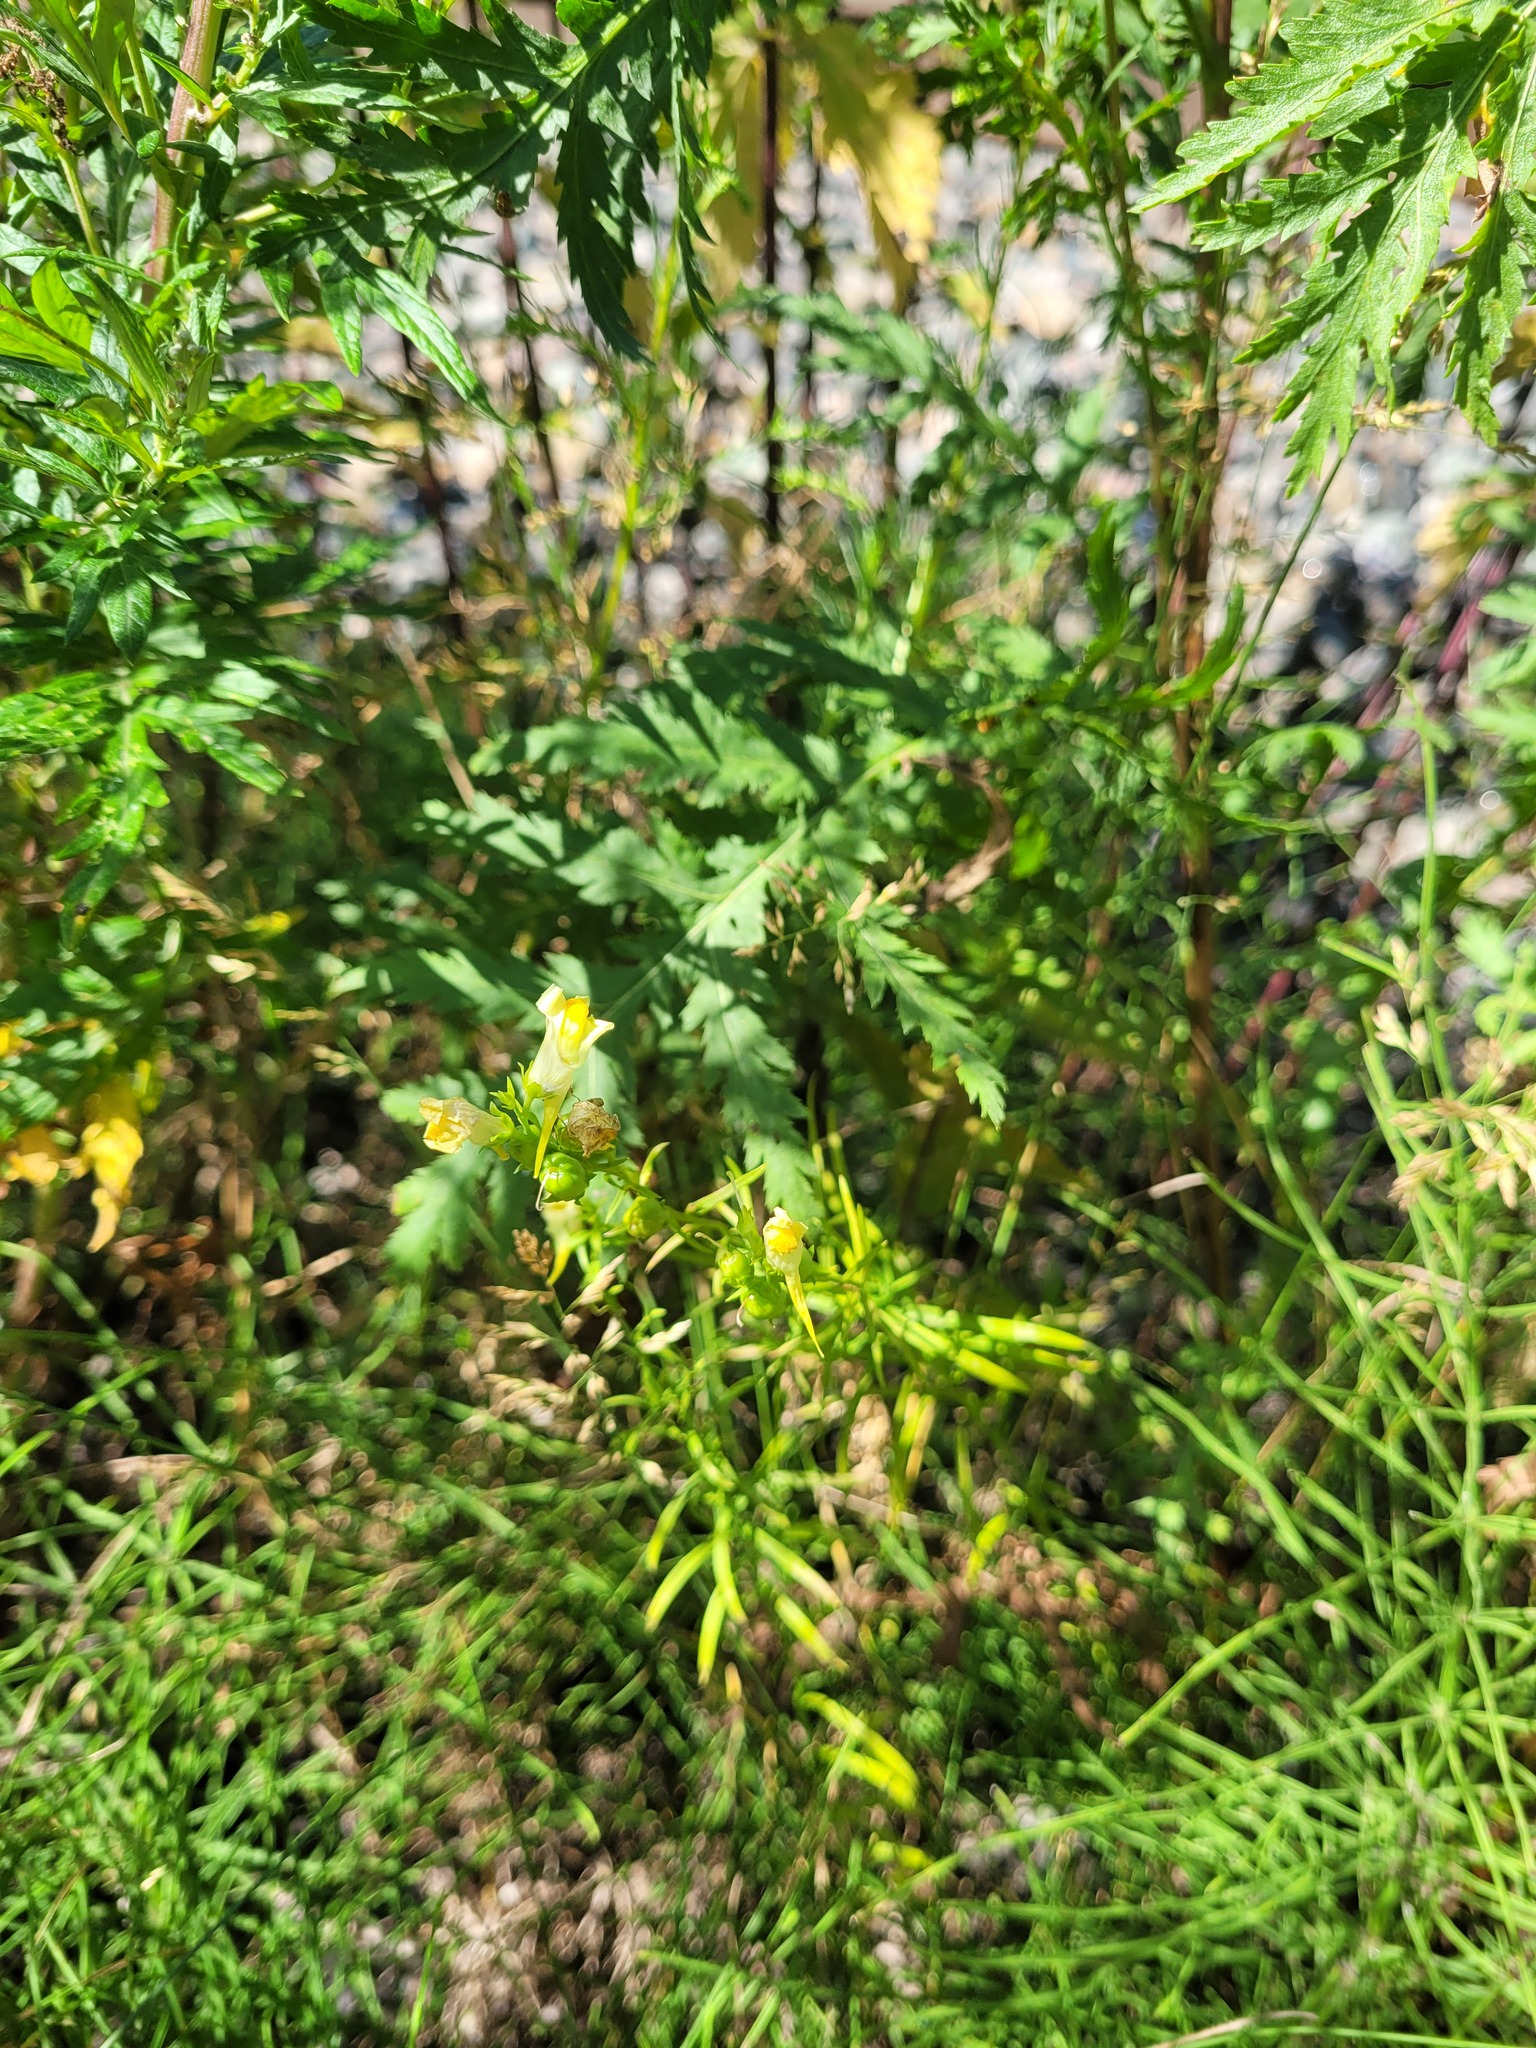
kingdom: Plantae
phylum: Tracheophyta
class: Magnoliopsida
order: Lamiales
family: Plantaginaceae
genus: Linaria
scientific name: Linaria vulgaris
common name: Butter and eggs
